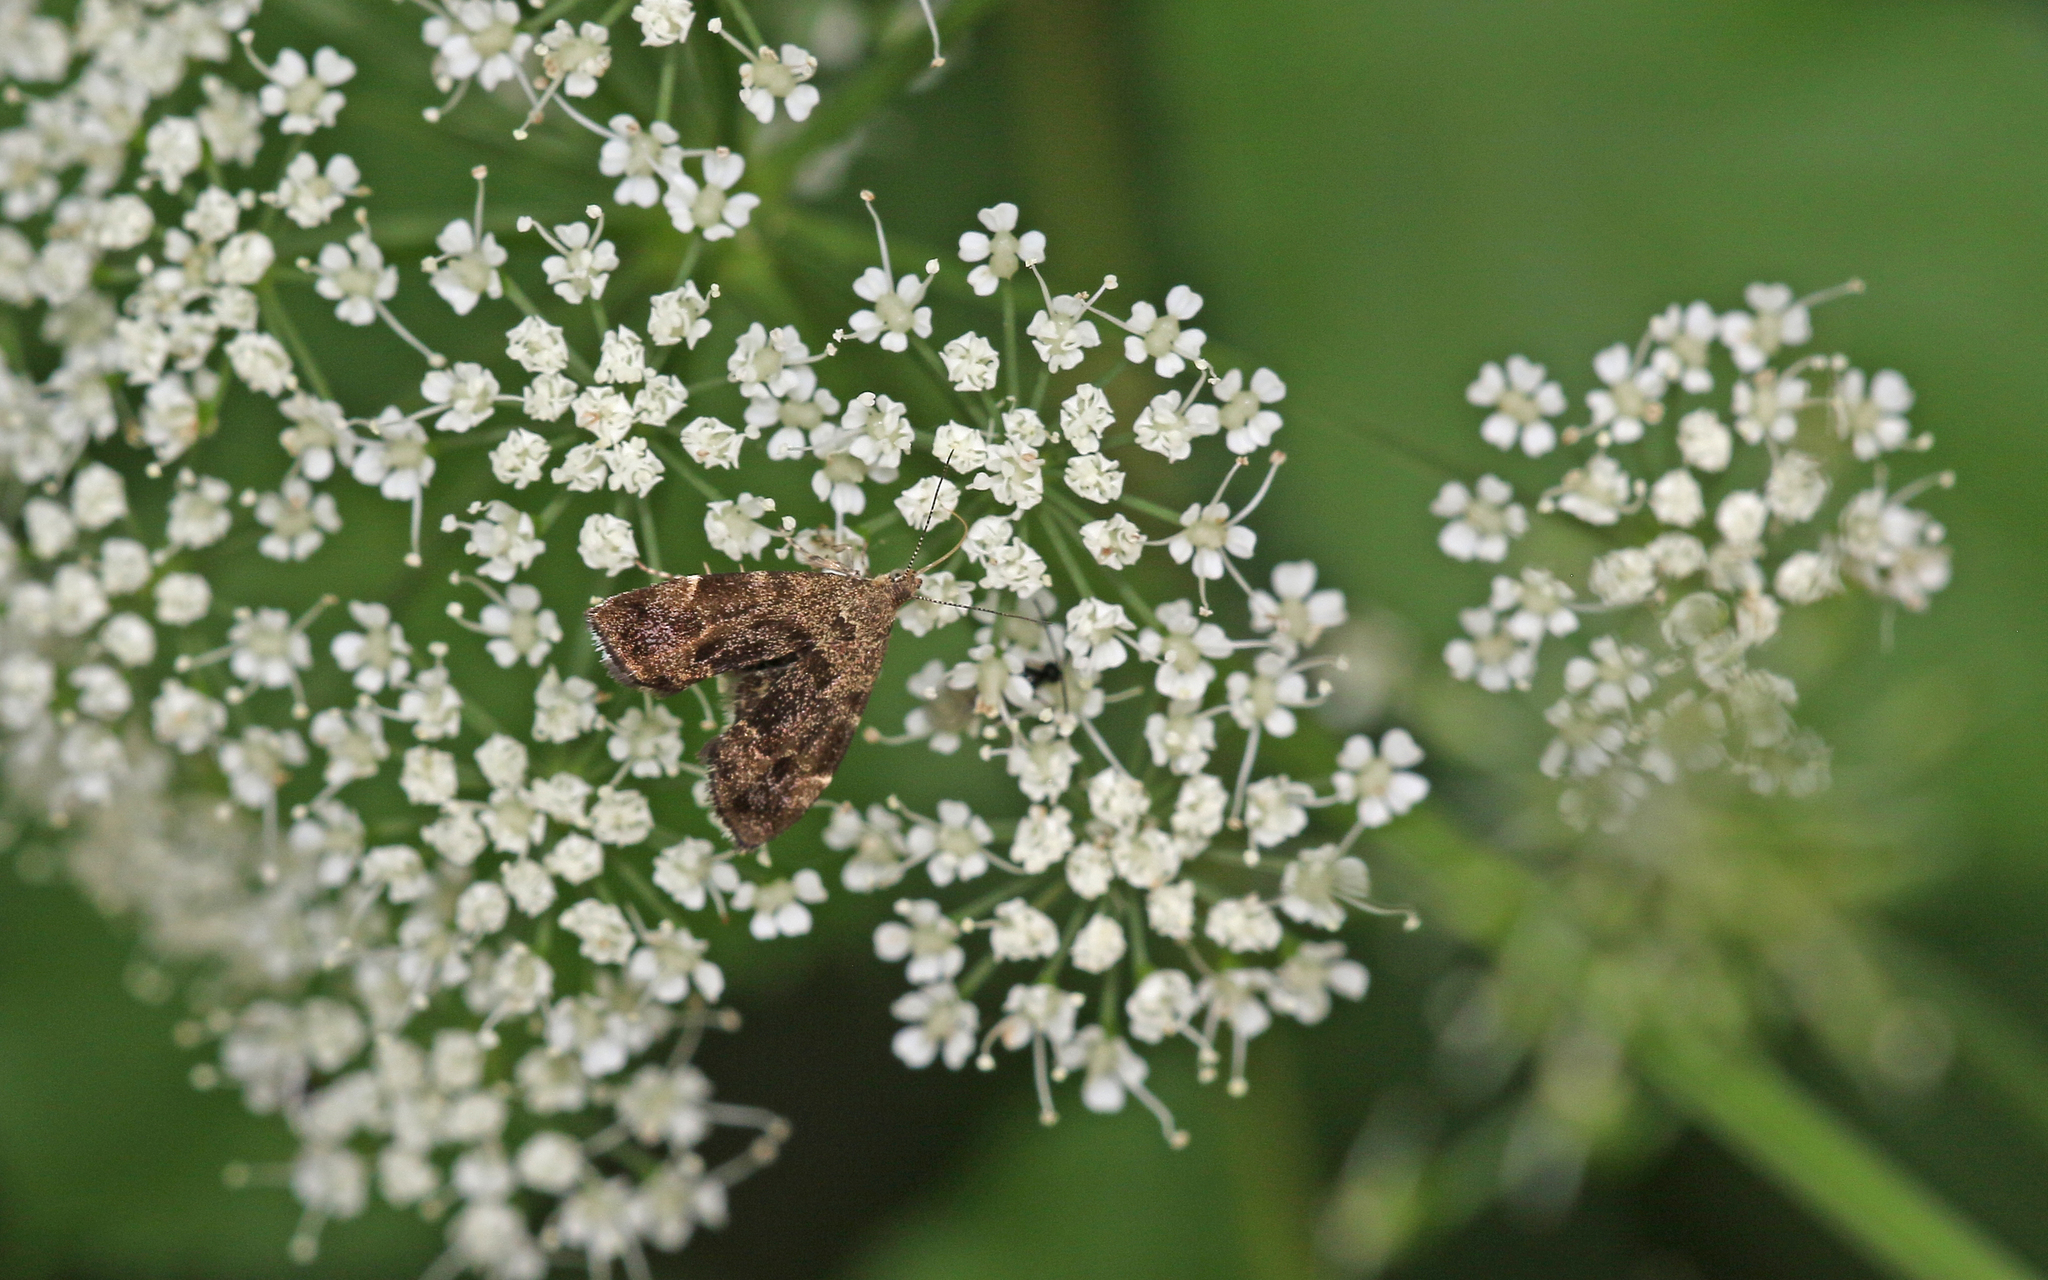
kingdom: Animalia
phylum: Arthropoda
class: Insecta
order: Lepidoptera
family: Choreutidae
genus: Anthophila
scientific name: Anthophila fabriciana
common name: Nettle-tap
